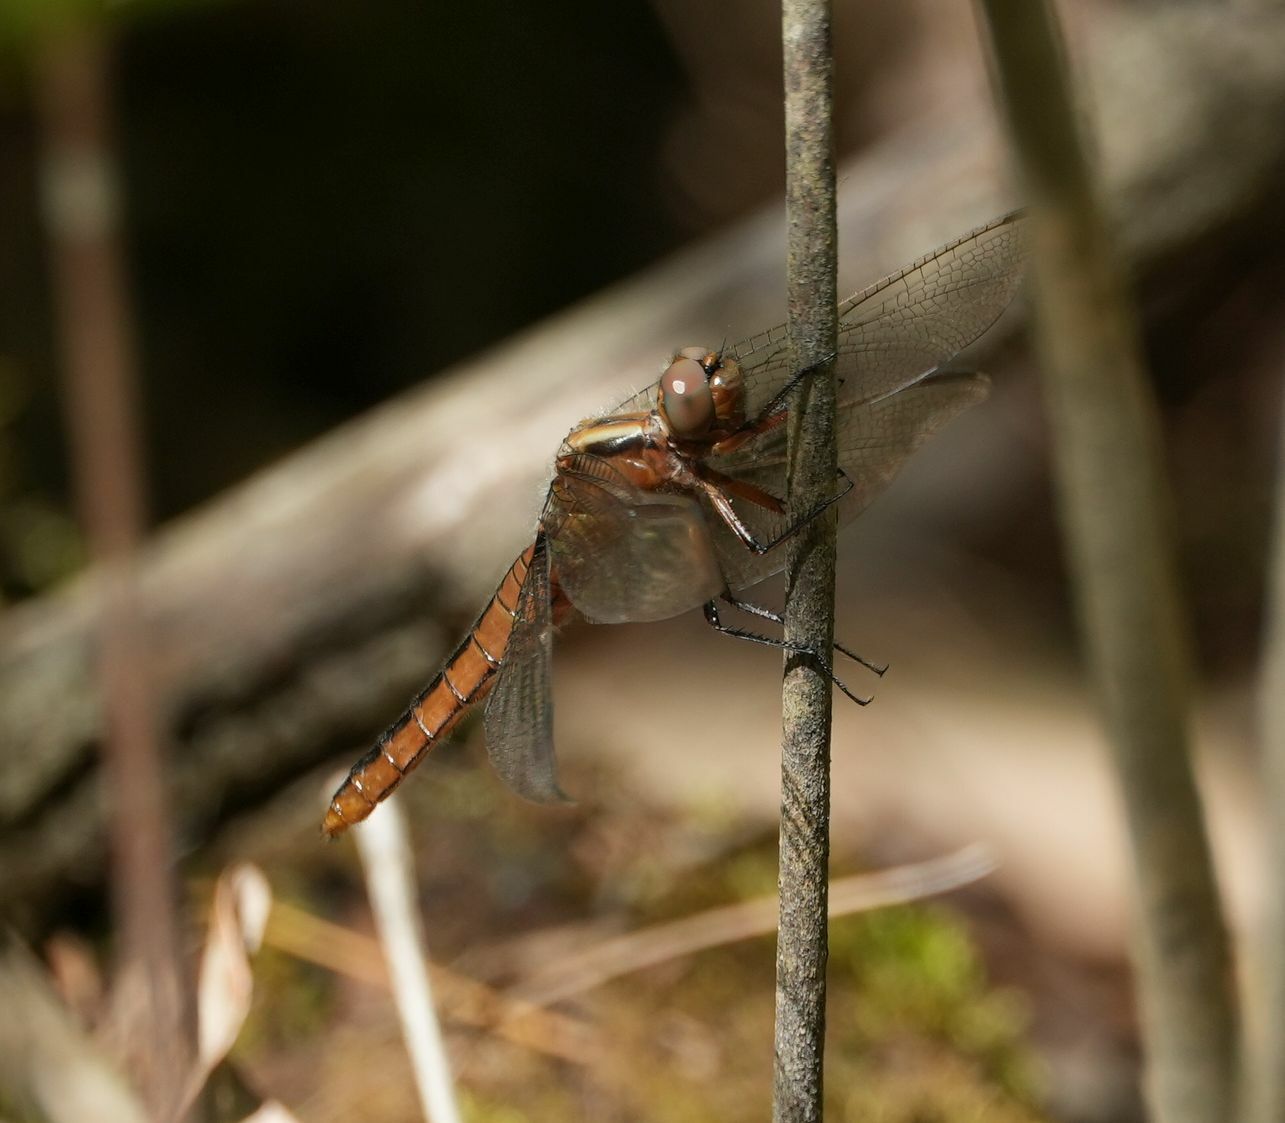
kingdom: Animalia
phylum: Arthropoda
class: Insecta
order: Odonata
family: Libellulidae
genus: Ladona
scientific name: Ladona julia
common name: Chalk-fronted corporal
